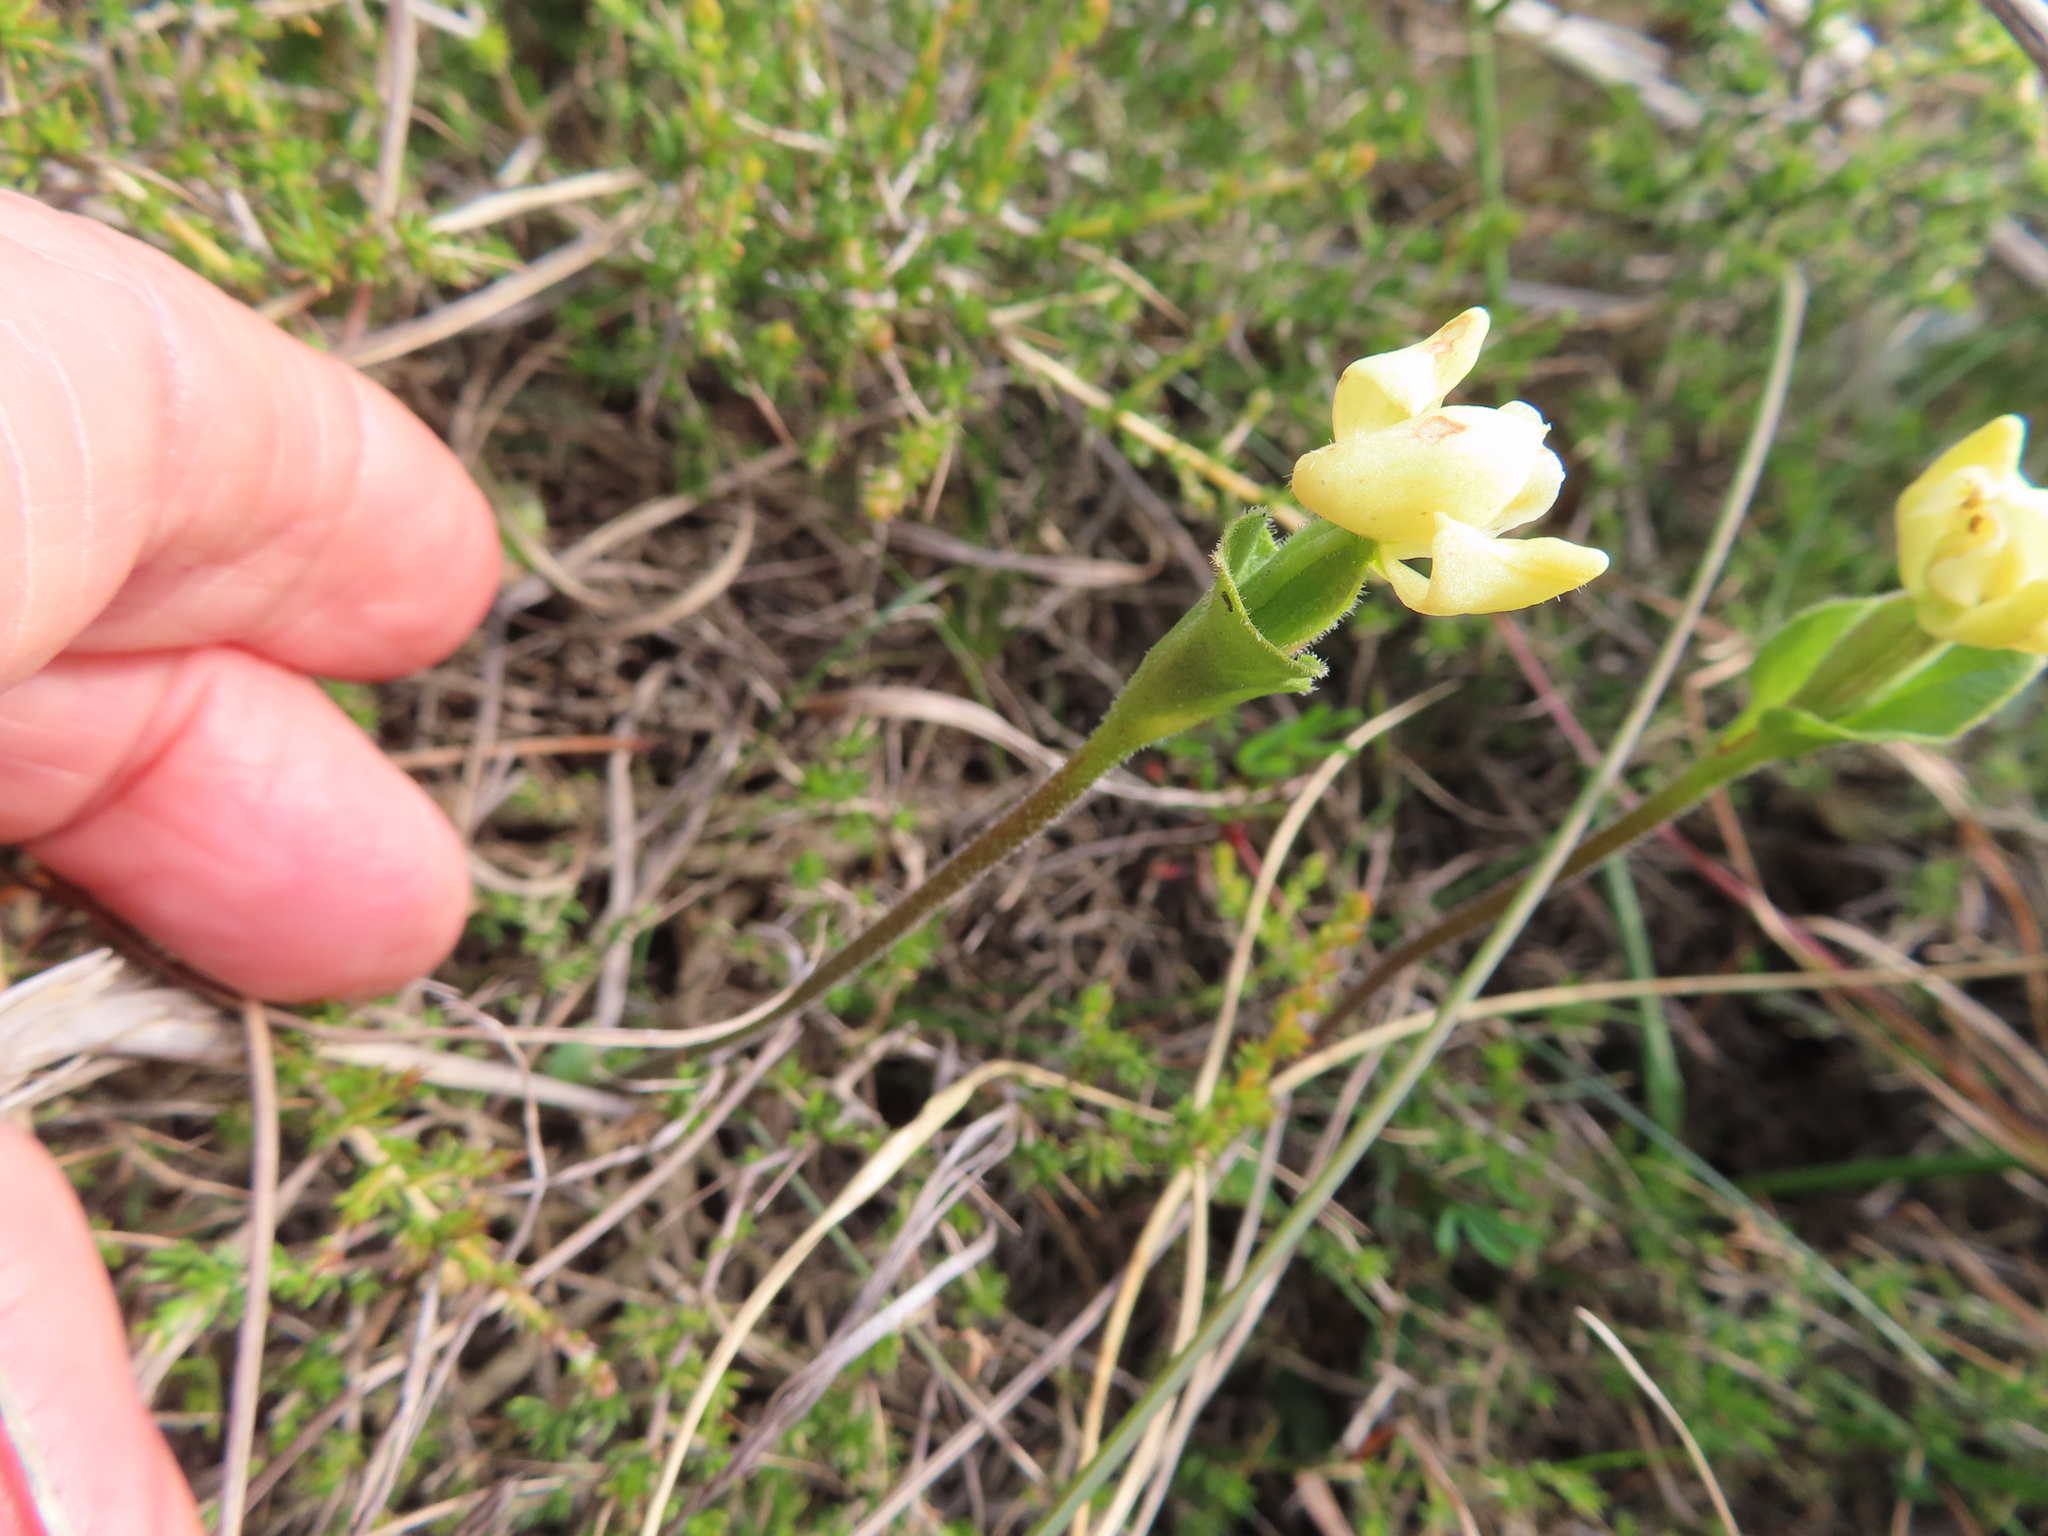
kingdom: Plantae
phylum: Tracheophyta
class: Liliopsida
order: Asparagales
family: Orchidaceae
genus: Disperis
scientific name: Disperis villosa
